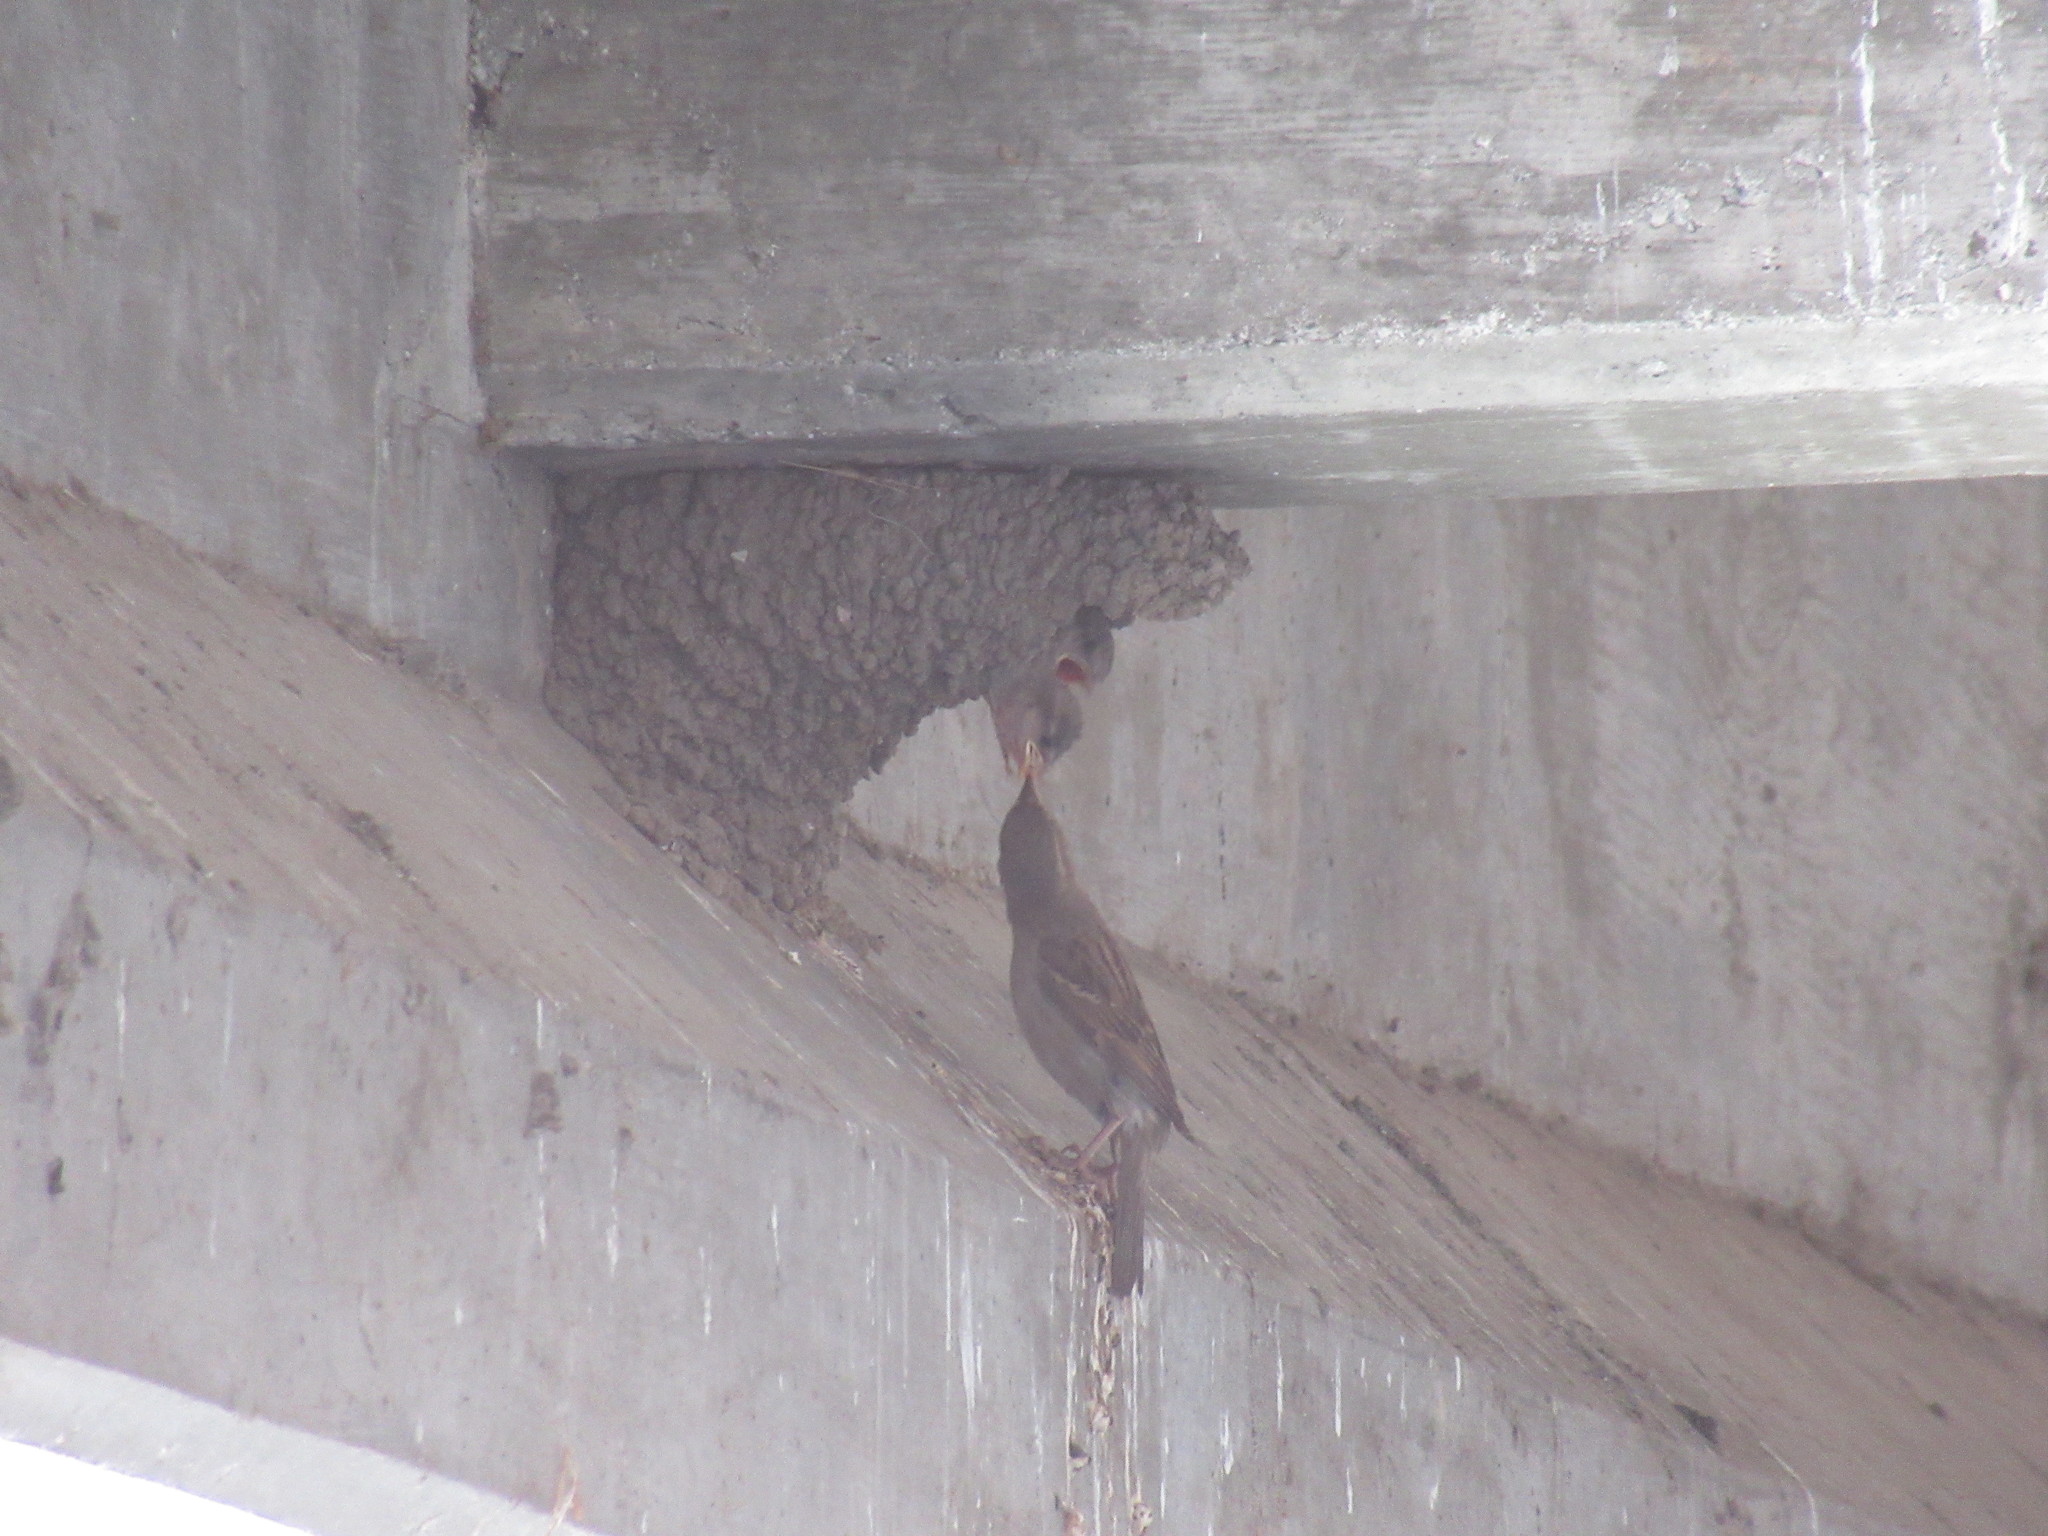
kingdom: Animalia
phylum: Chordata
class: Aves
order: Passeriformes
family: Passeridae
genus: Passer
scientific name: Passer domesticus
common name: House sparrow
